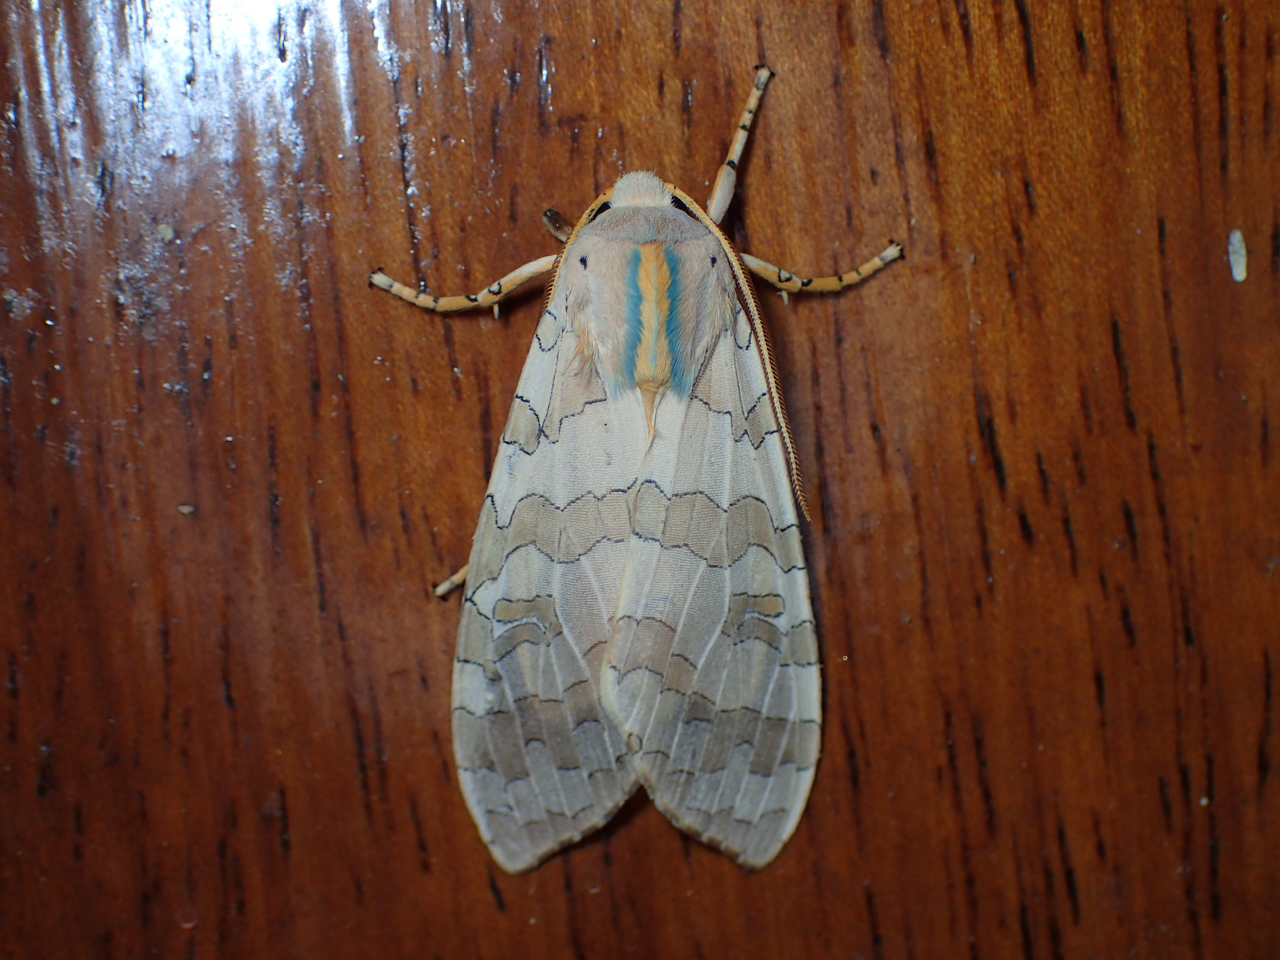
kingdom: Animalia
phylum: Arthropoda
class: Insecta
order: Lepidoptera
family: Erebidae
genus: Halysidota
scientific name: Halysidota
